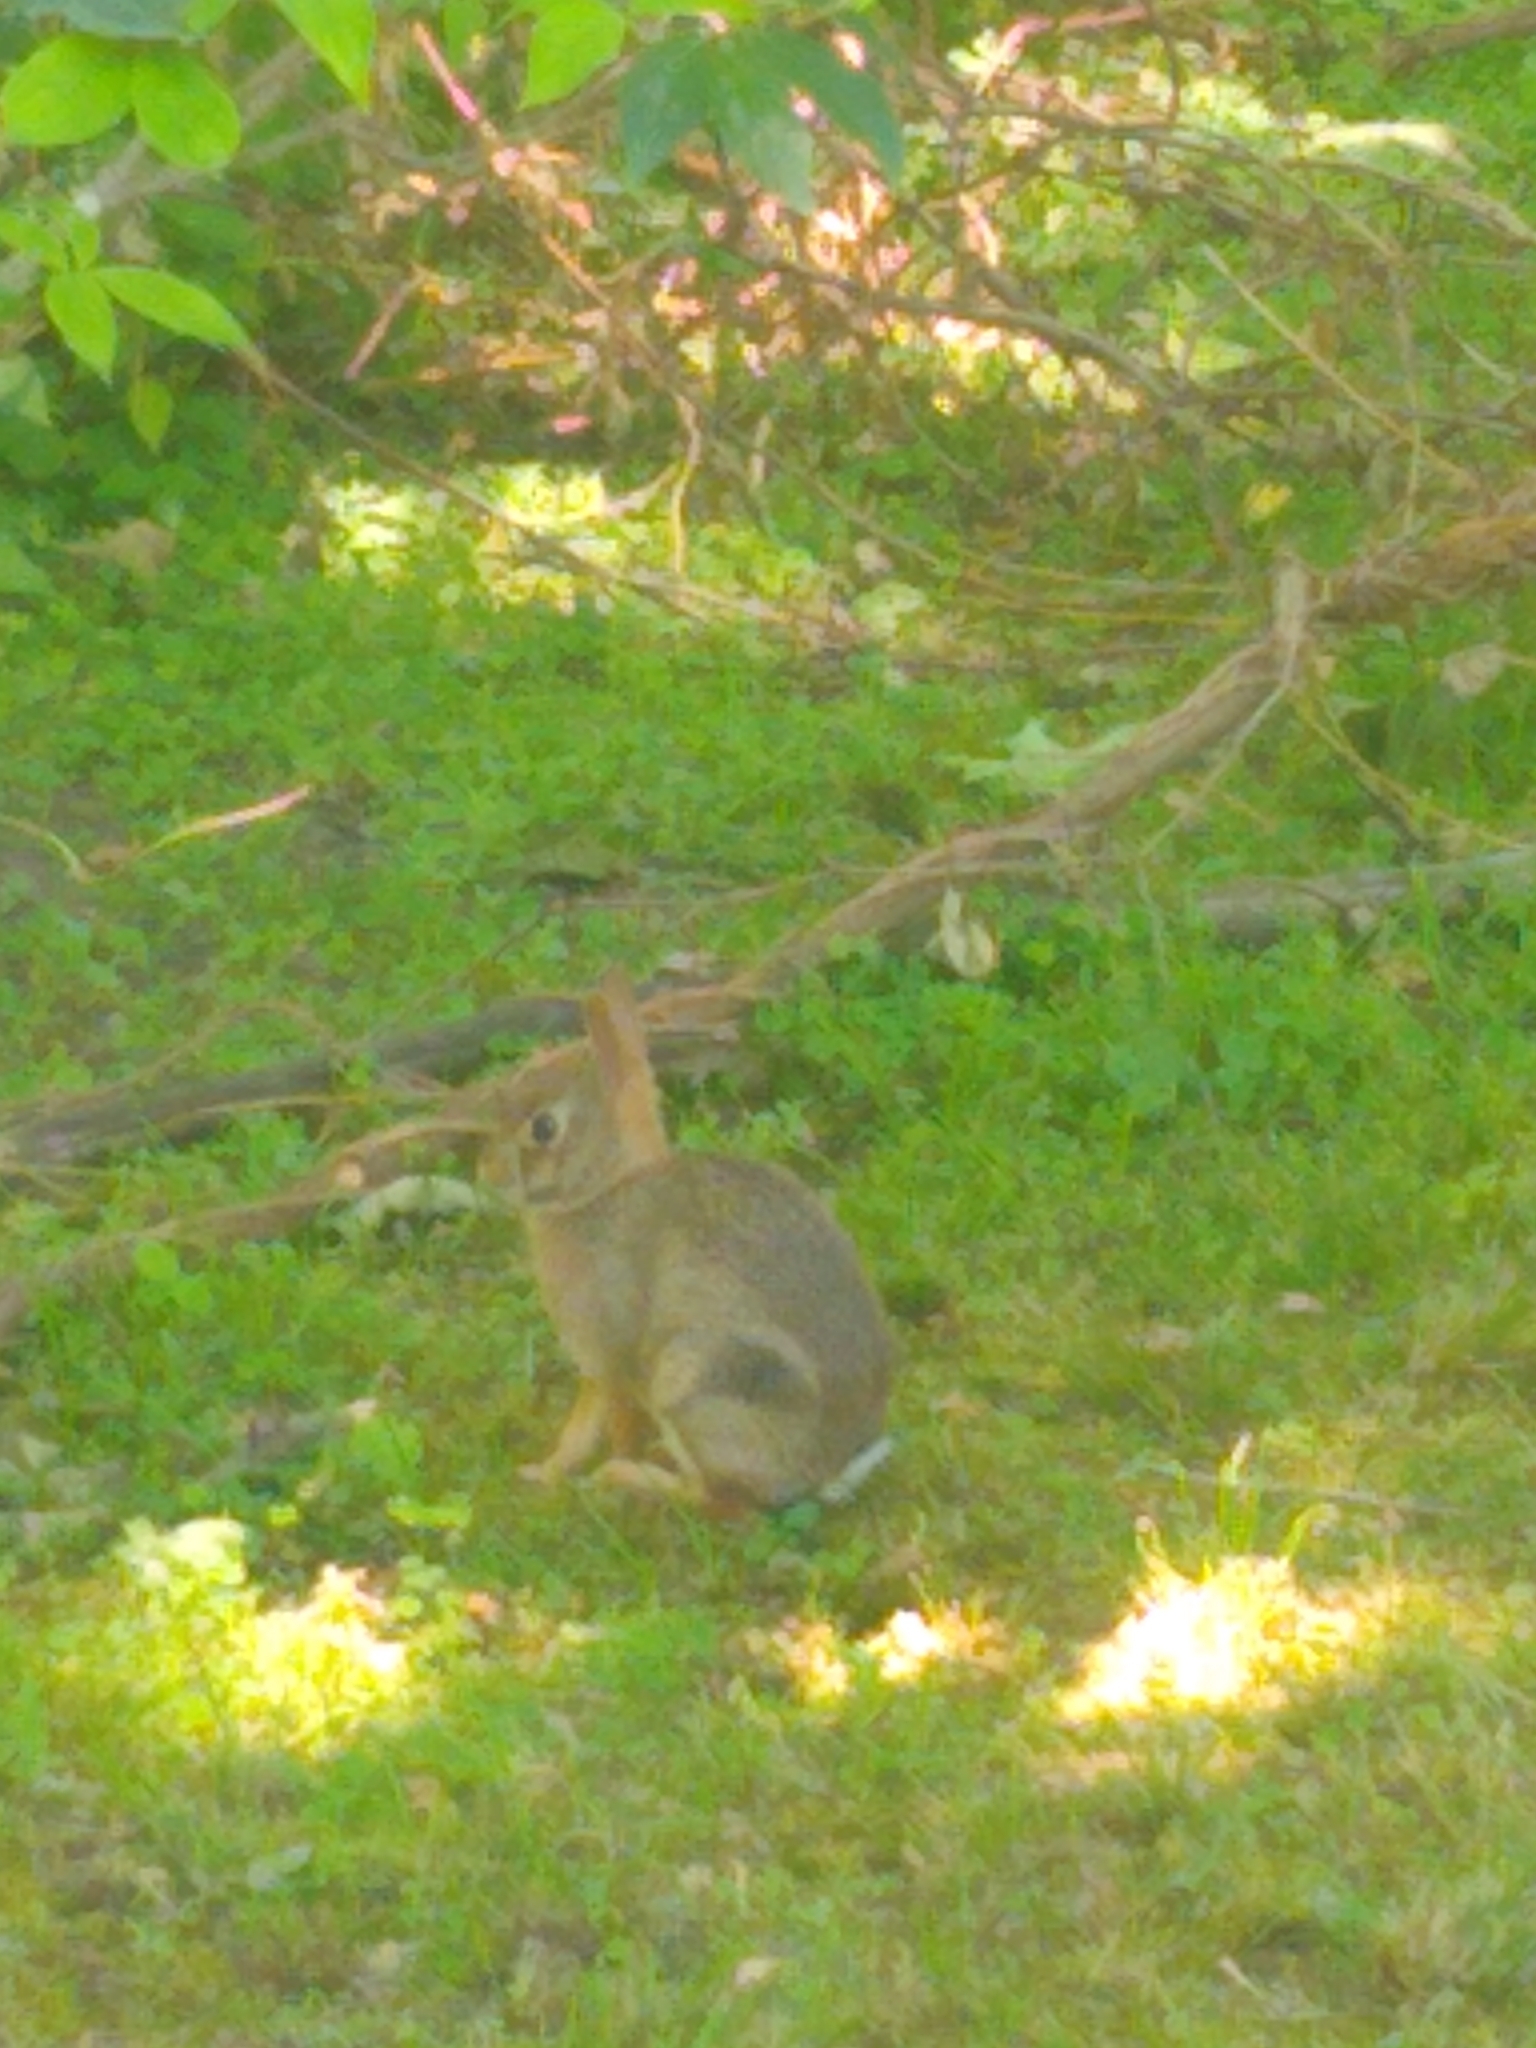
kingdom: Animalia
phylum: Chordata
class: Mammalia
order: Lagomorpha
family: Leporidae
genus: Sylvilagus
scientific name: Sylvilagus floridanus
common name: Eastern cottontail
